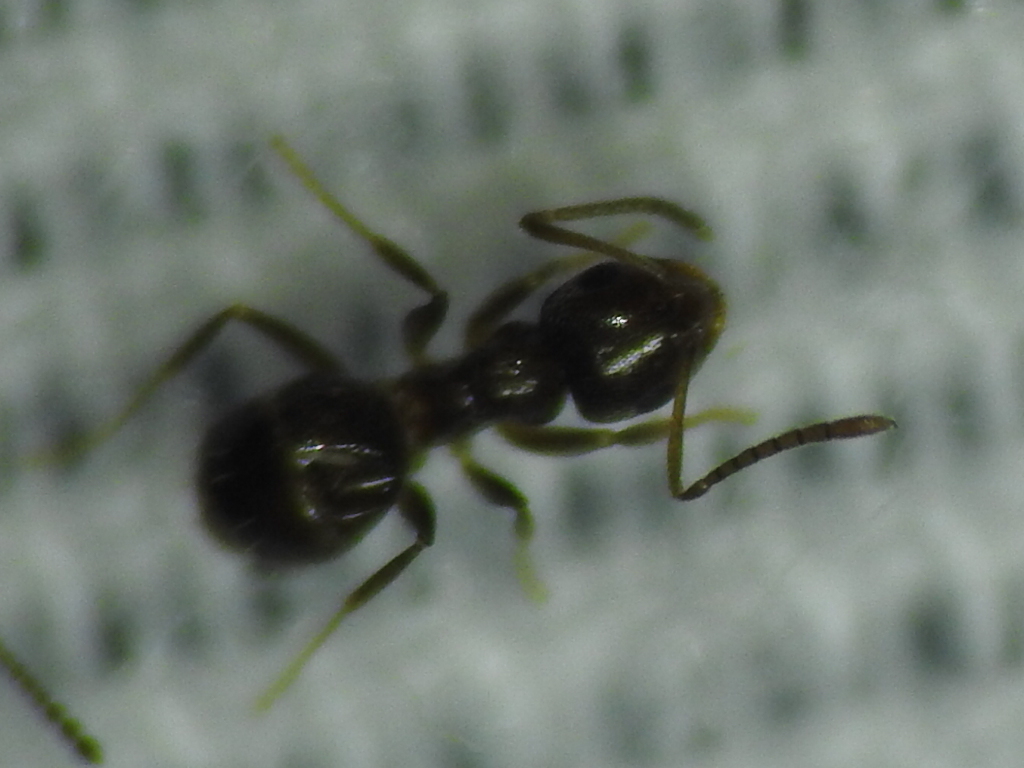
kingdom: Animalia
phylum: Arthropoda
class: Insecta
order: Hymenoptera
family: Formicidae
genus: Brachymyrmex
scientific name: Brachymyrmex patagonicus
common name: Dark rover ant
